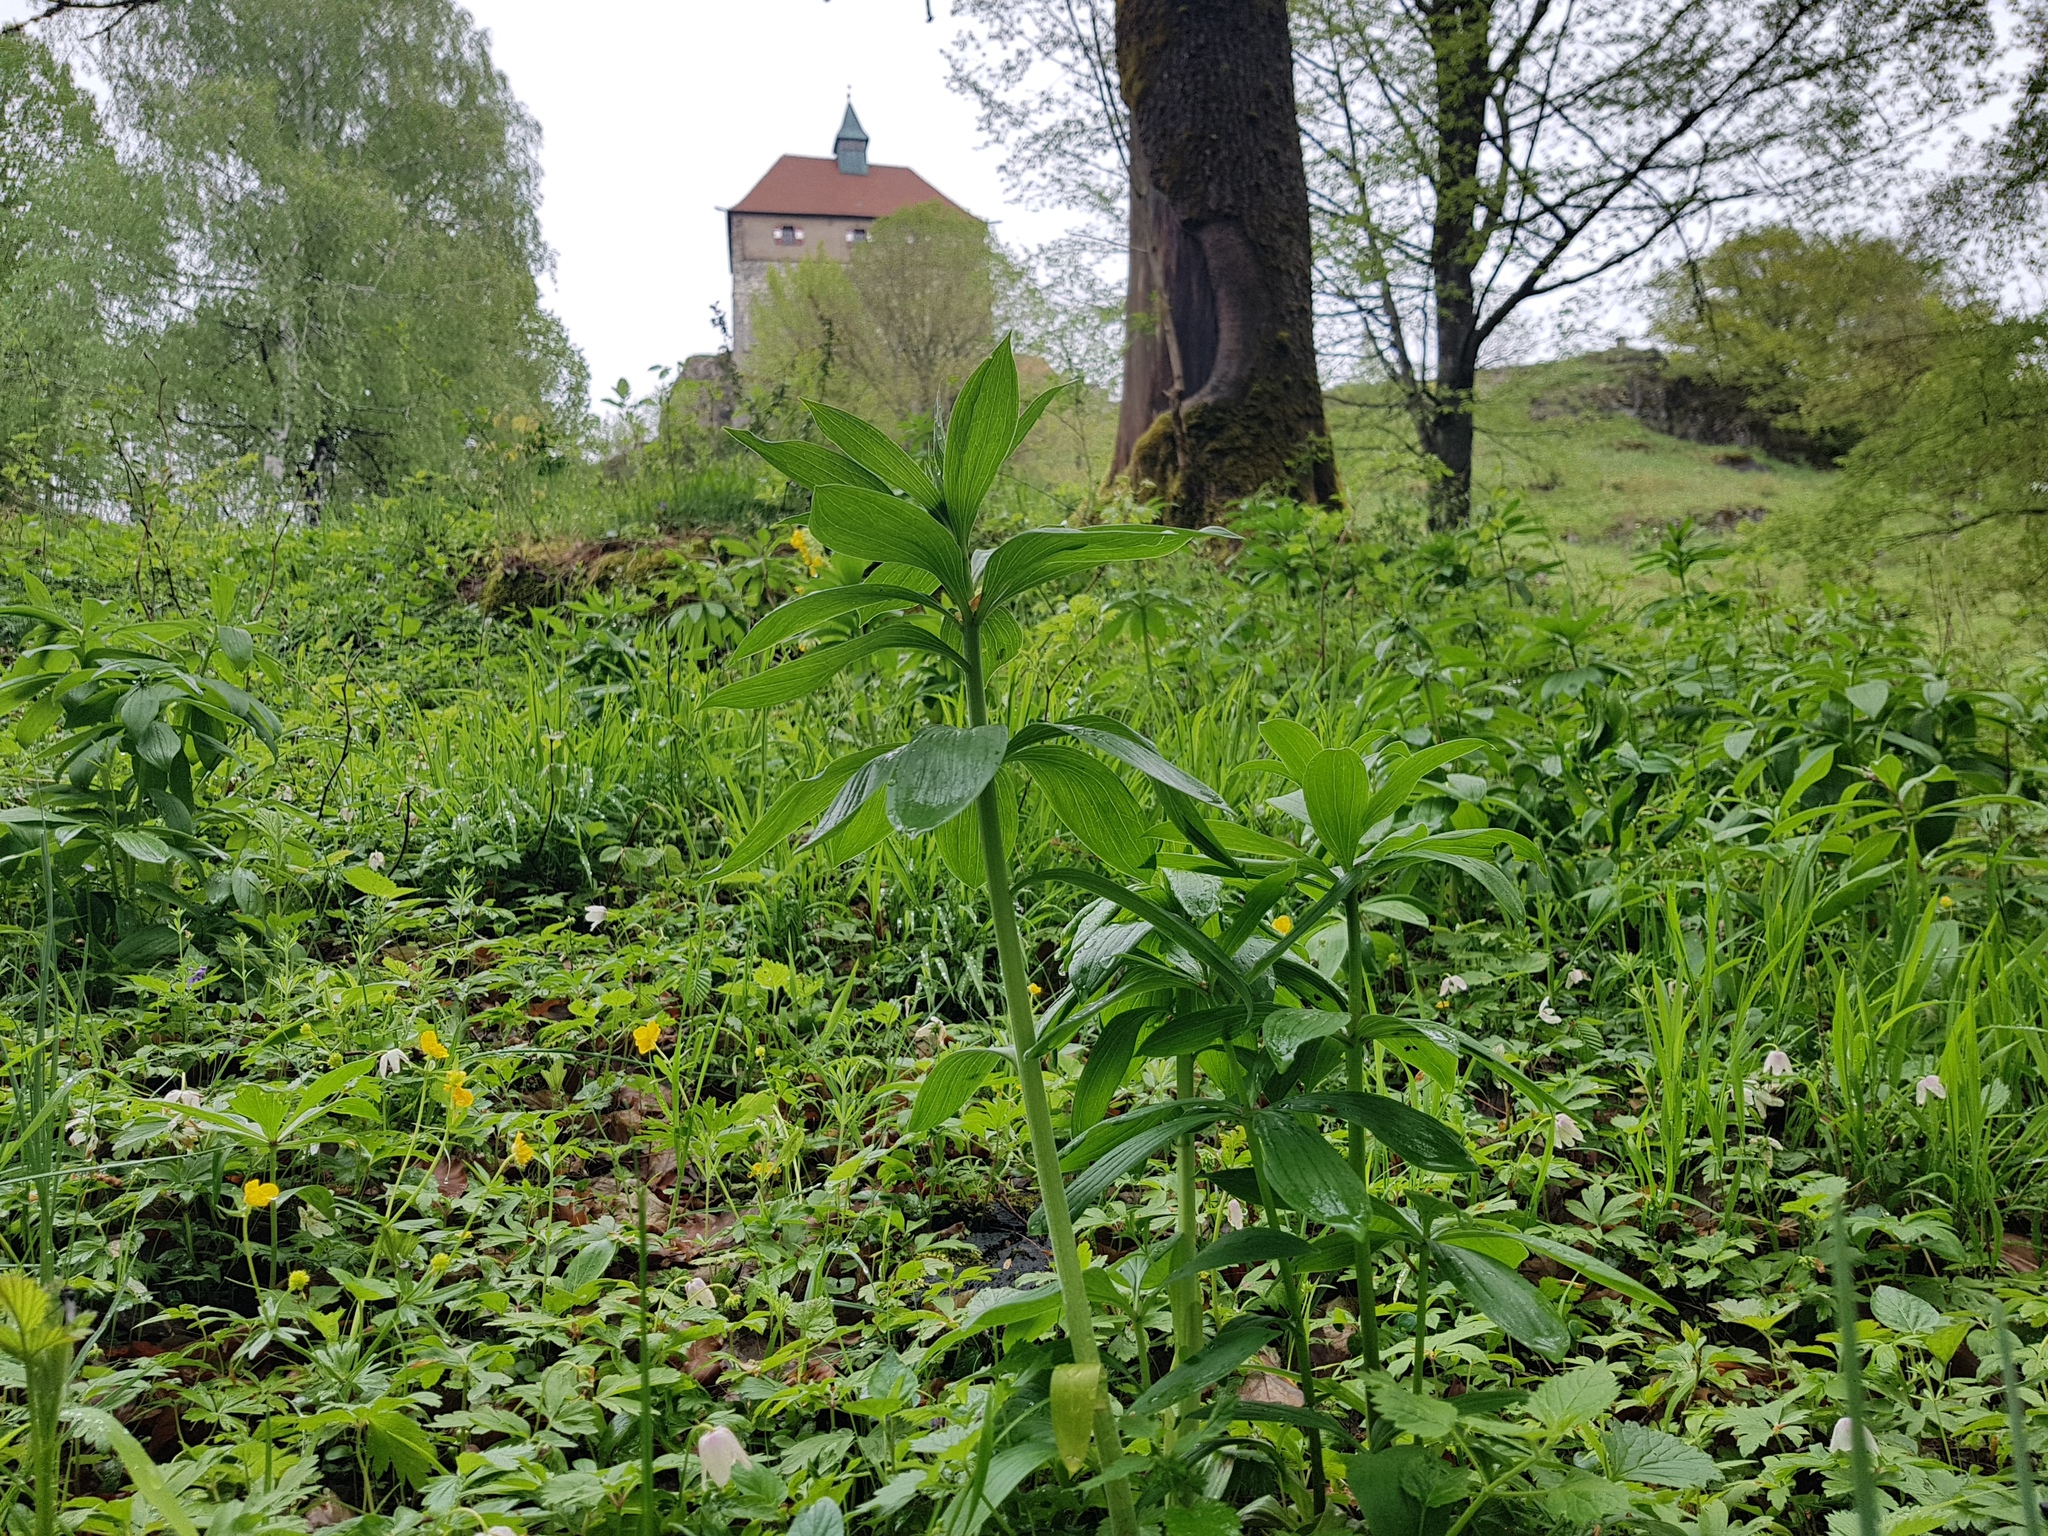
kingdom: Plantae
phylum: Tracheophyta
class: Liliopsida
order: Liliales
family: Liliaceae
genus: Lilium
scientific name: Lilium martagon
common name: Martagon lily
